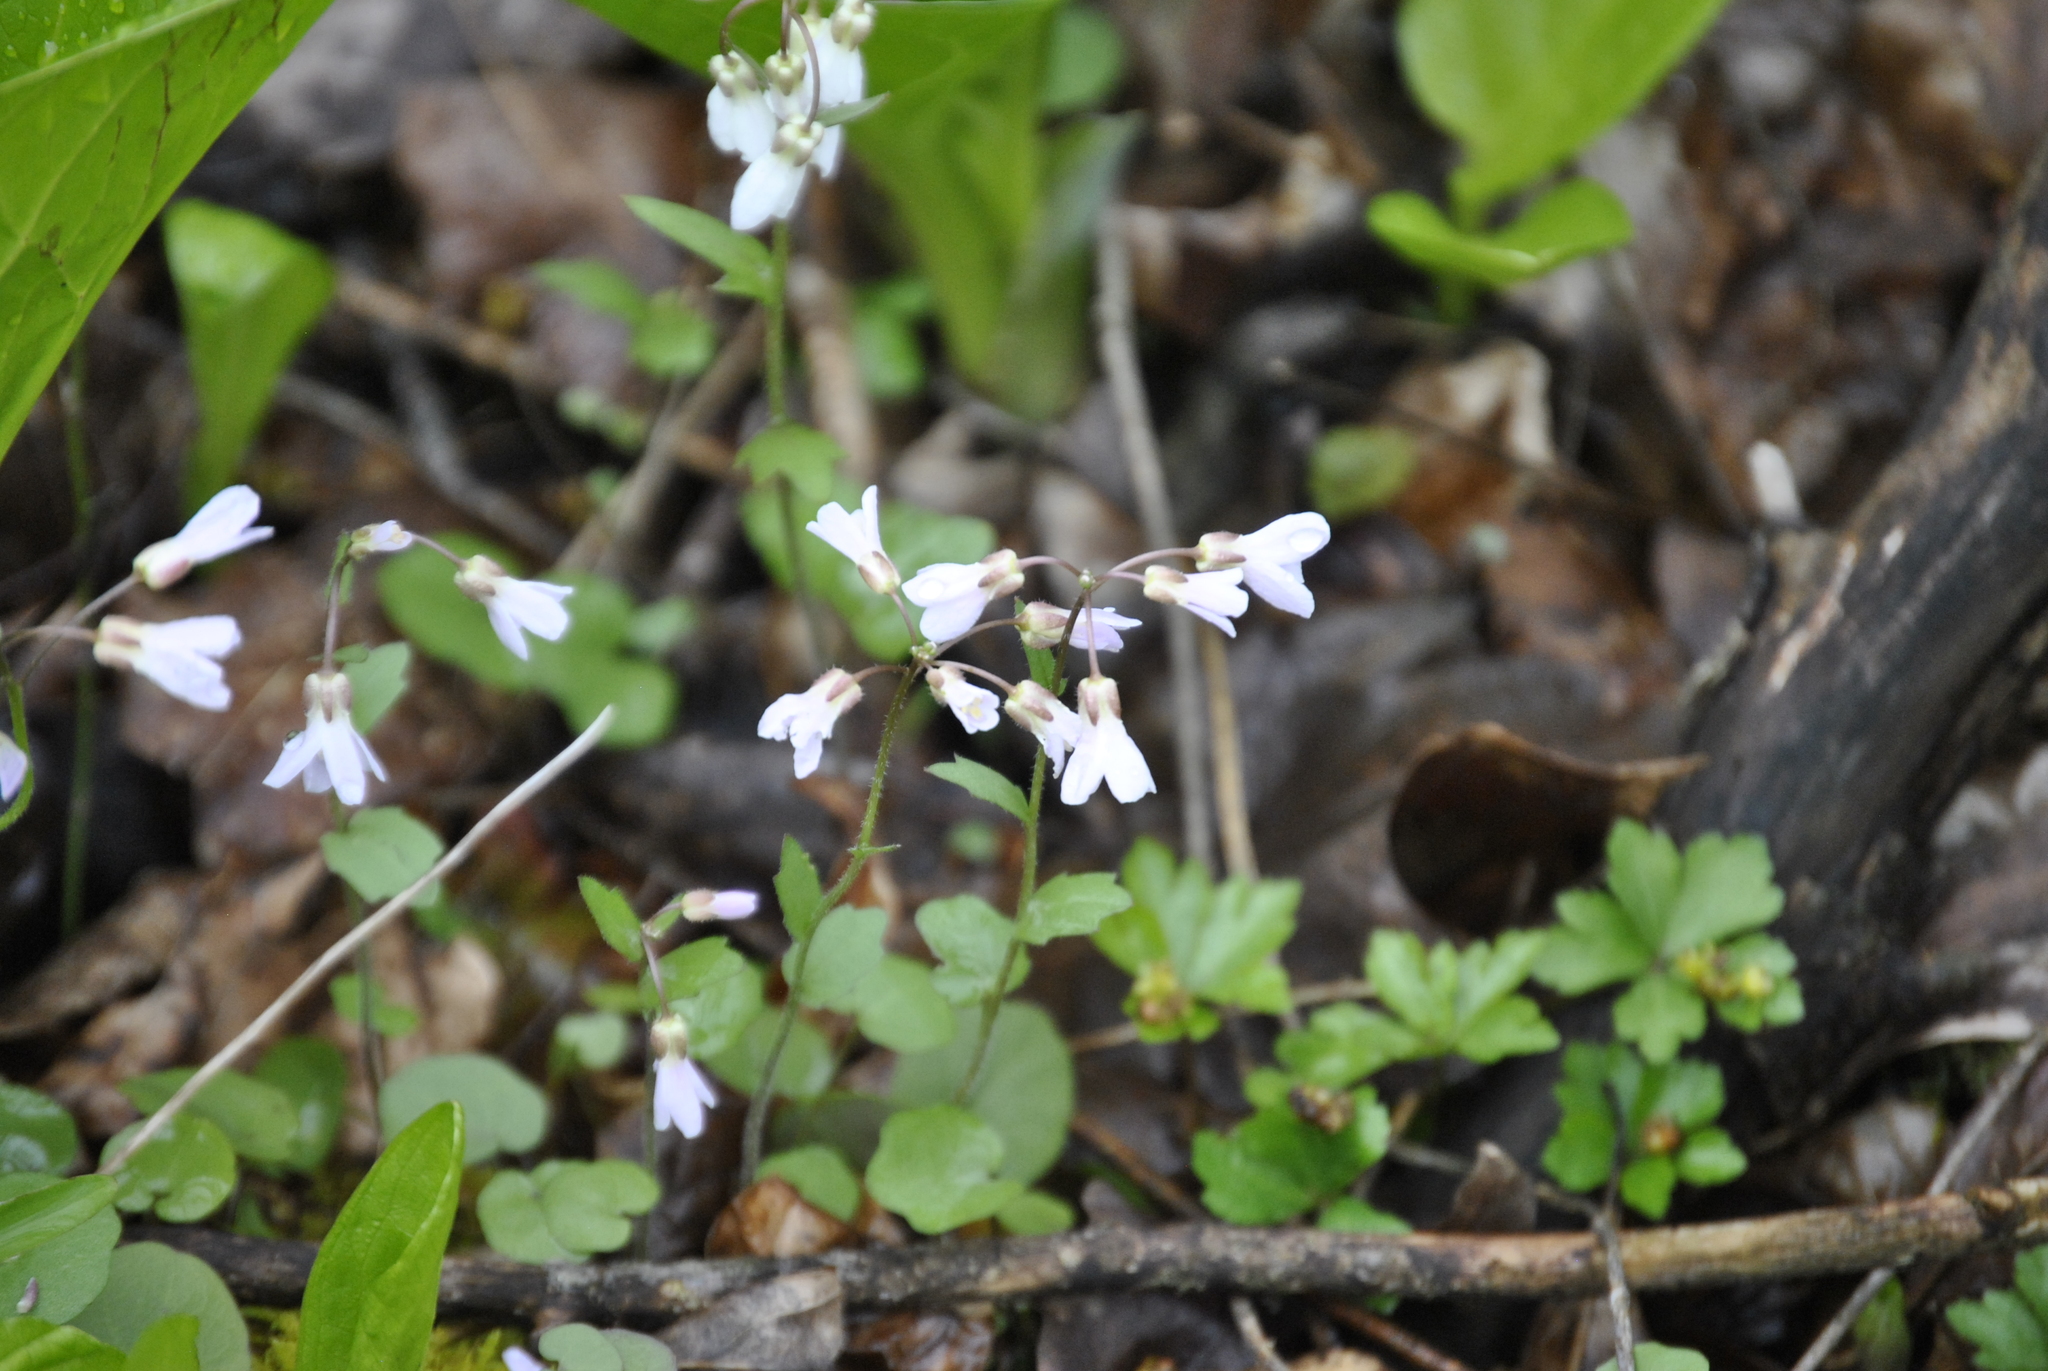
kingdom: Plantae
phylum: Tracheophyta
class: Magnoliopsida
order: Brassicales
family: Brassicaceae
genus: Cardamine
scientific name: Cardamine douglassii
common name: Purple cress
